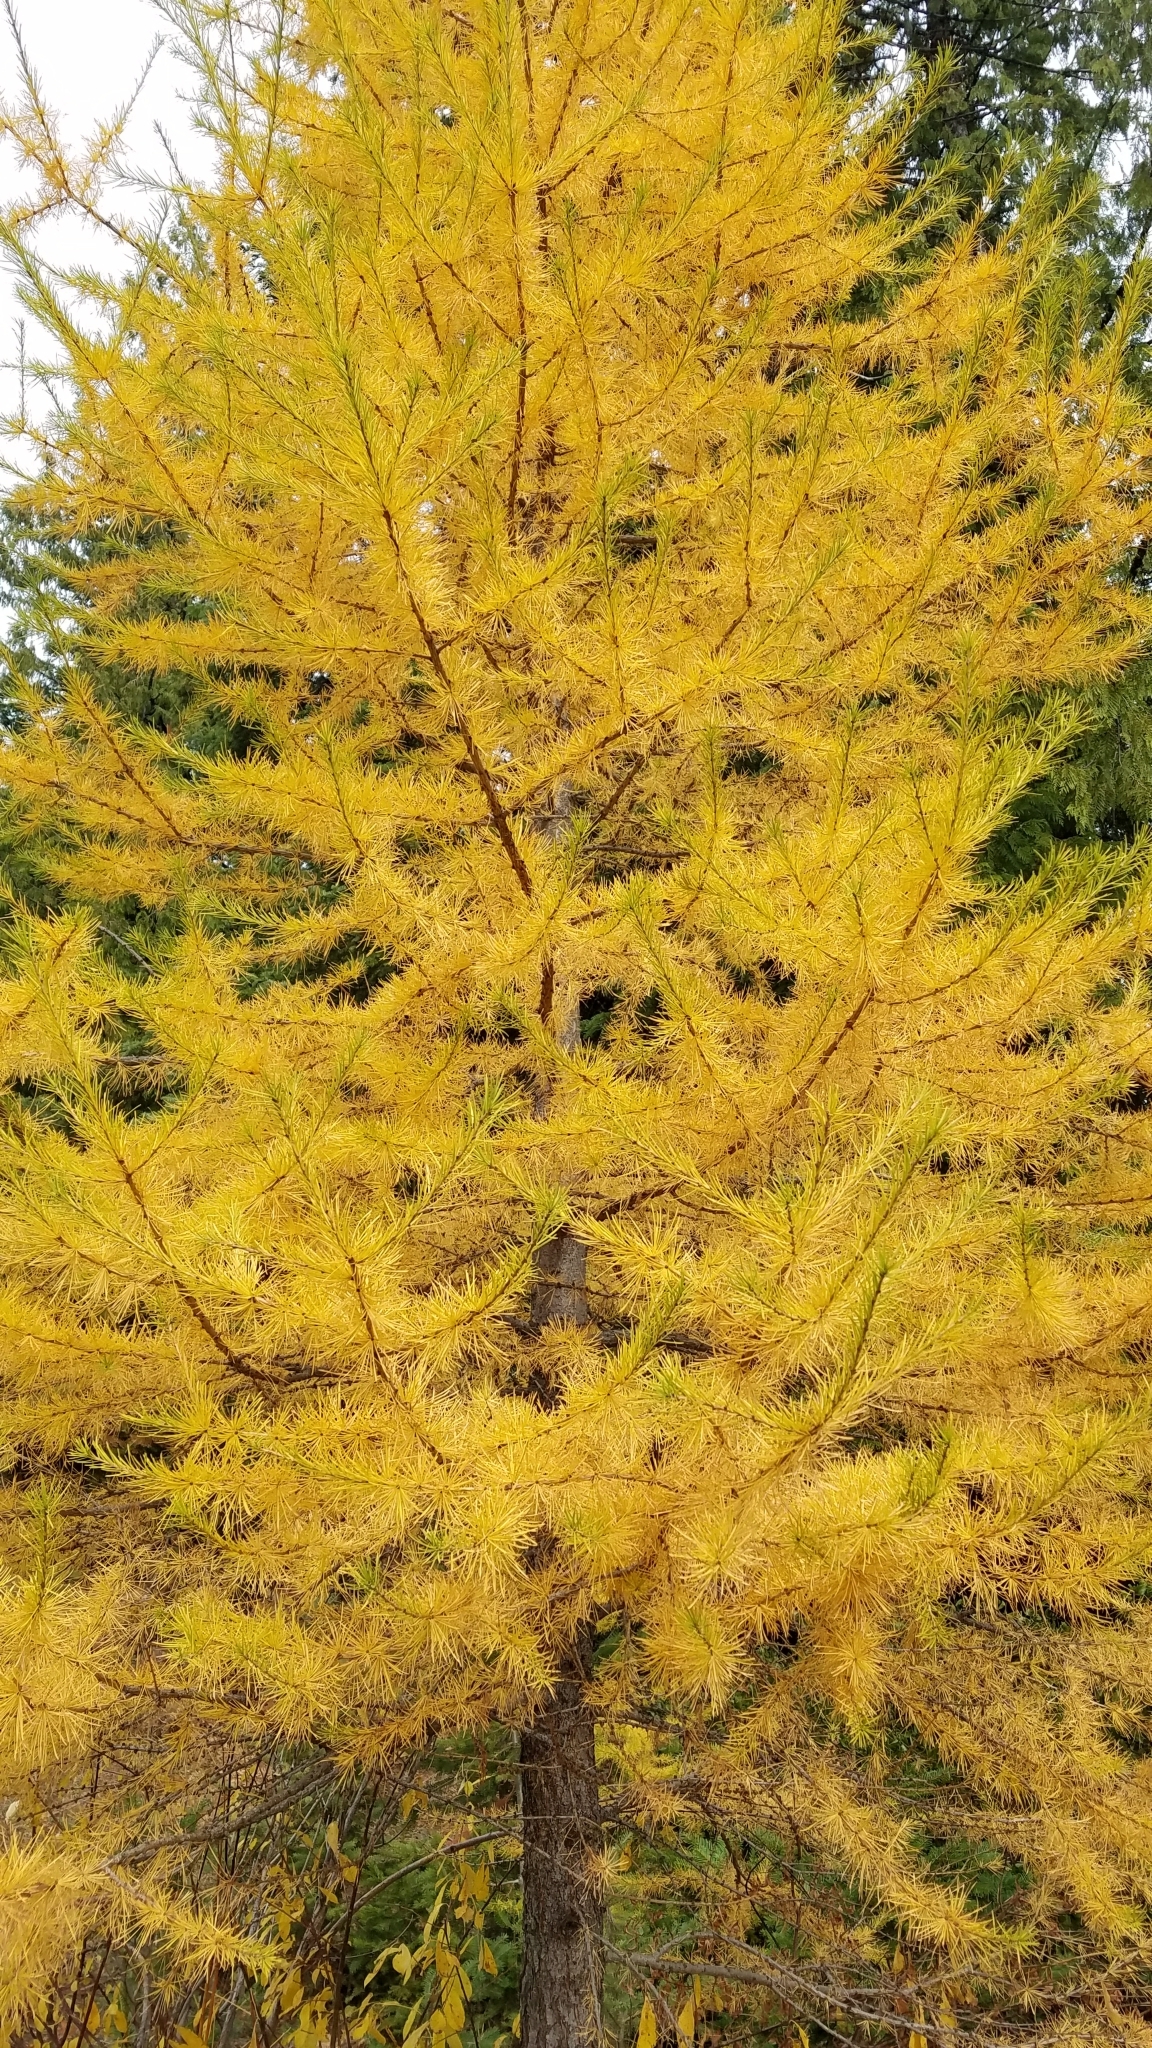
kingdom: Plantae
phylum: Tracheophyta
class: Pinopsida
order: Pinales
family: Pinaceae
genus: Larix
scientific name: Larix occidentalis
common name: Western larch
